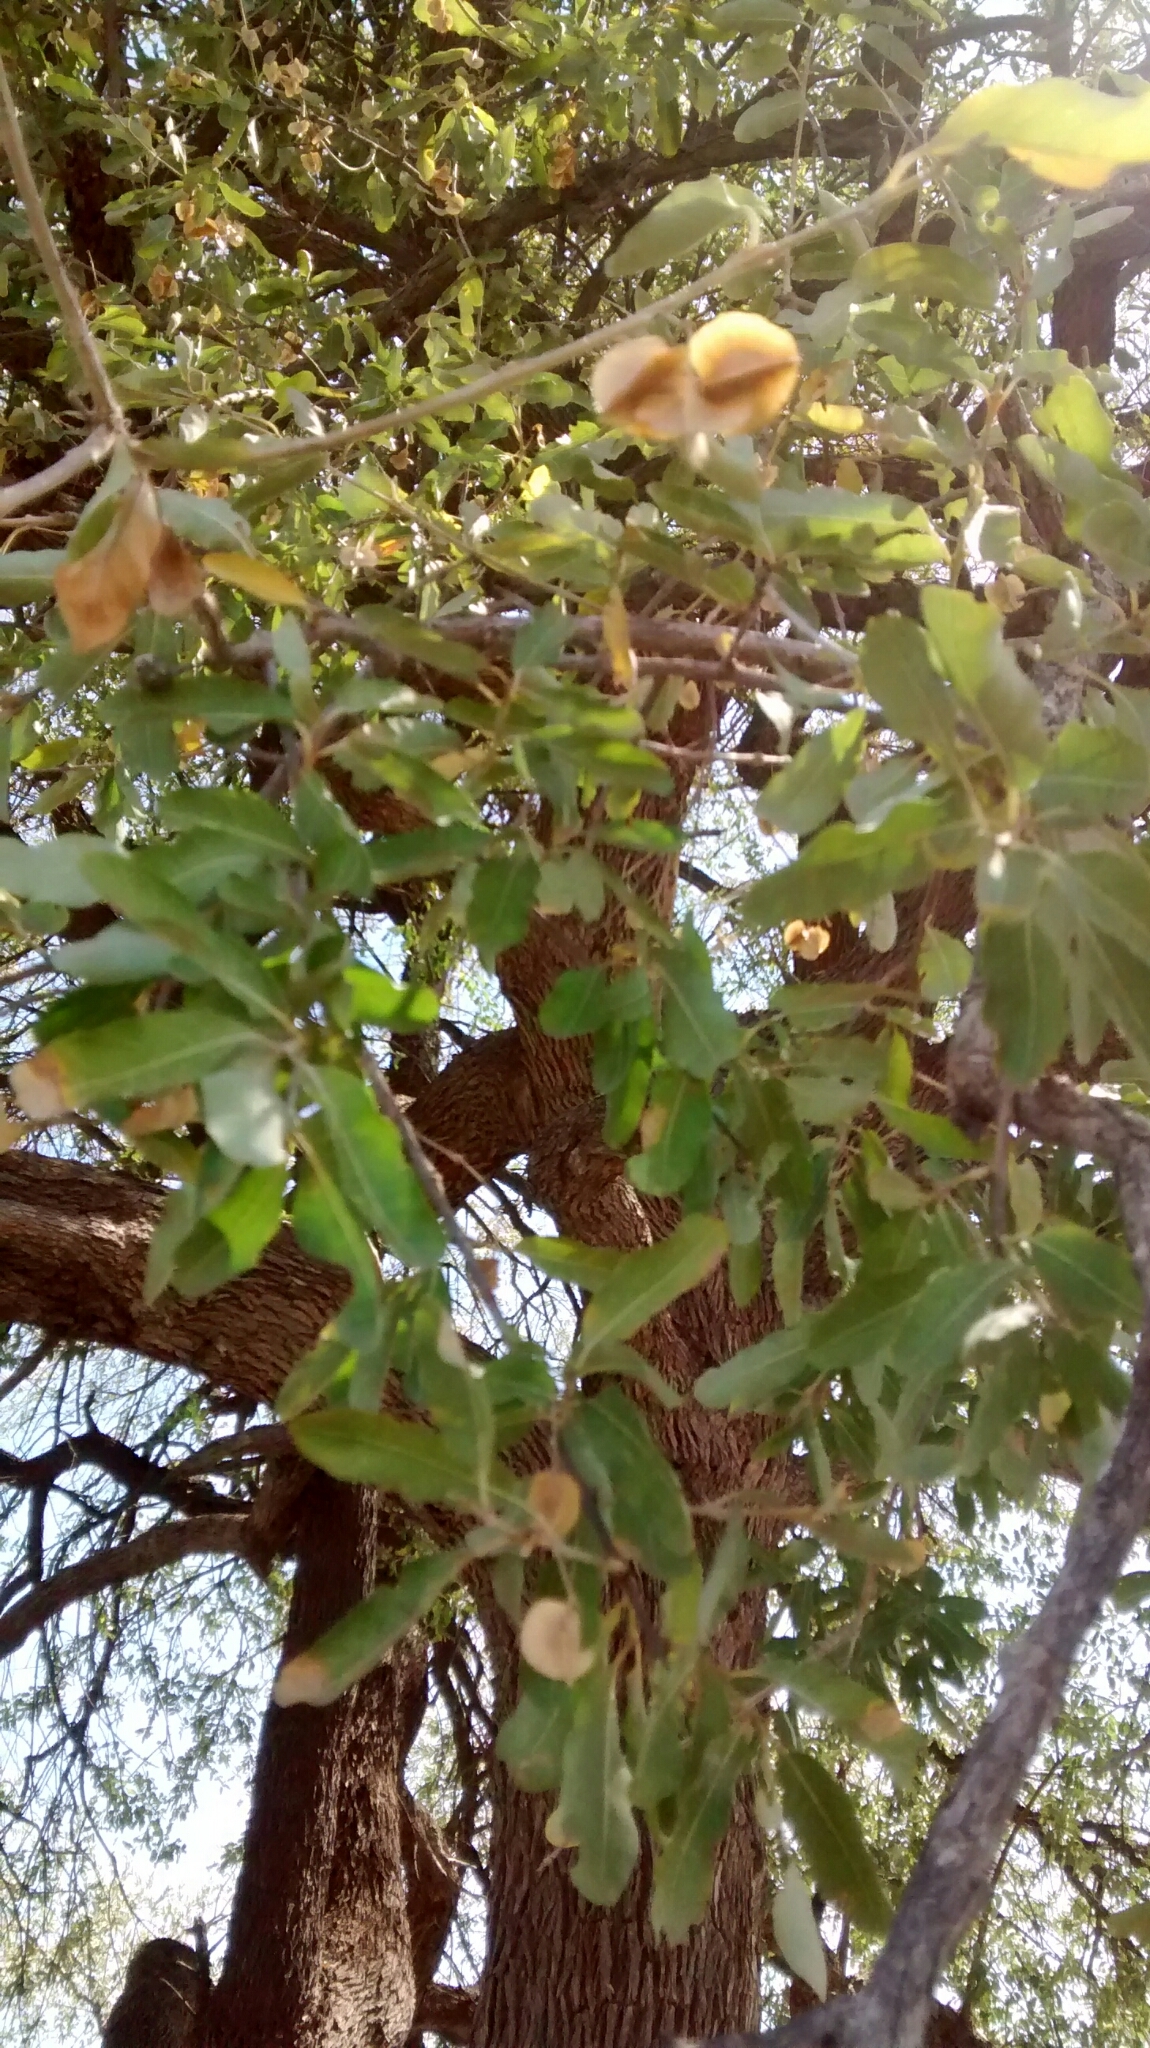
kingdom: Plantae
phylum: Tracheophyta
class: Magnoliopsida
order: Myrtales
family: Combretaceae
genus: Combretum
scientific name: Combretum imberbe
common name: Leadwood
